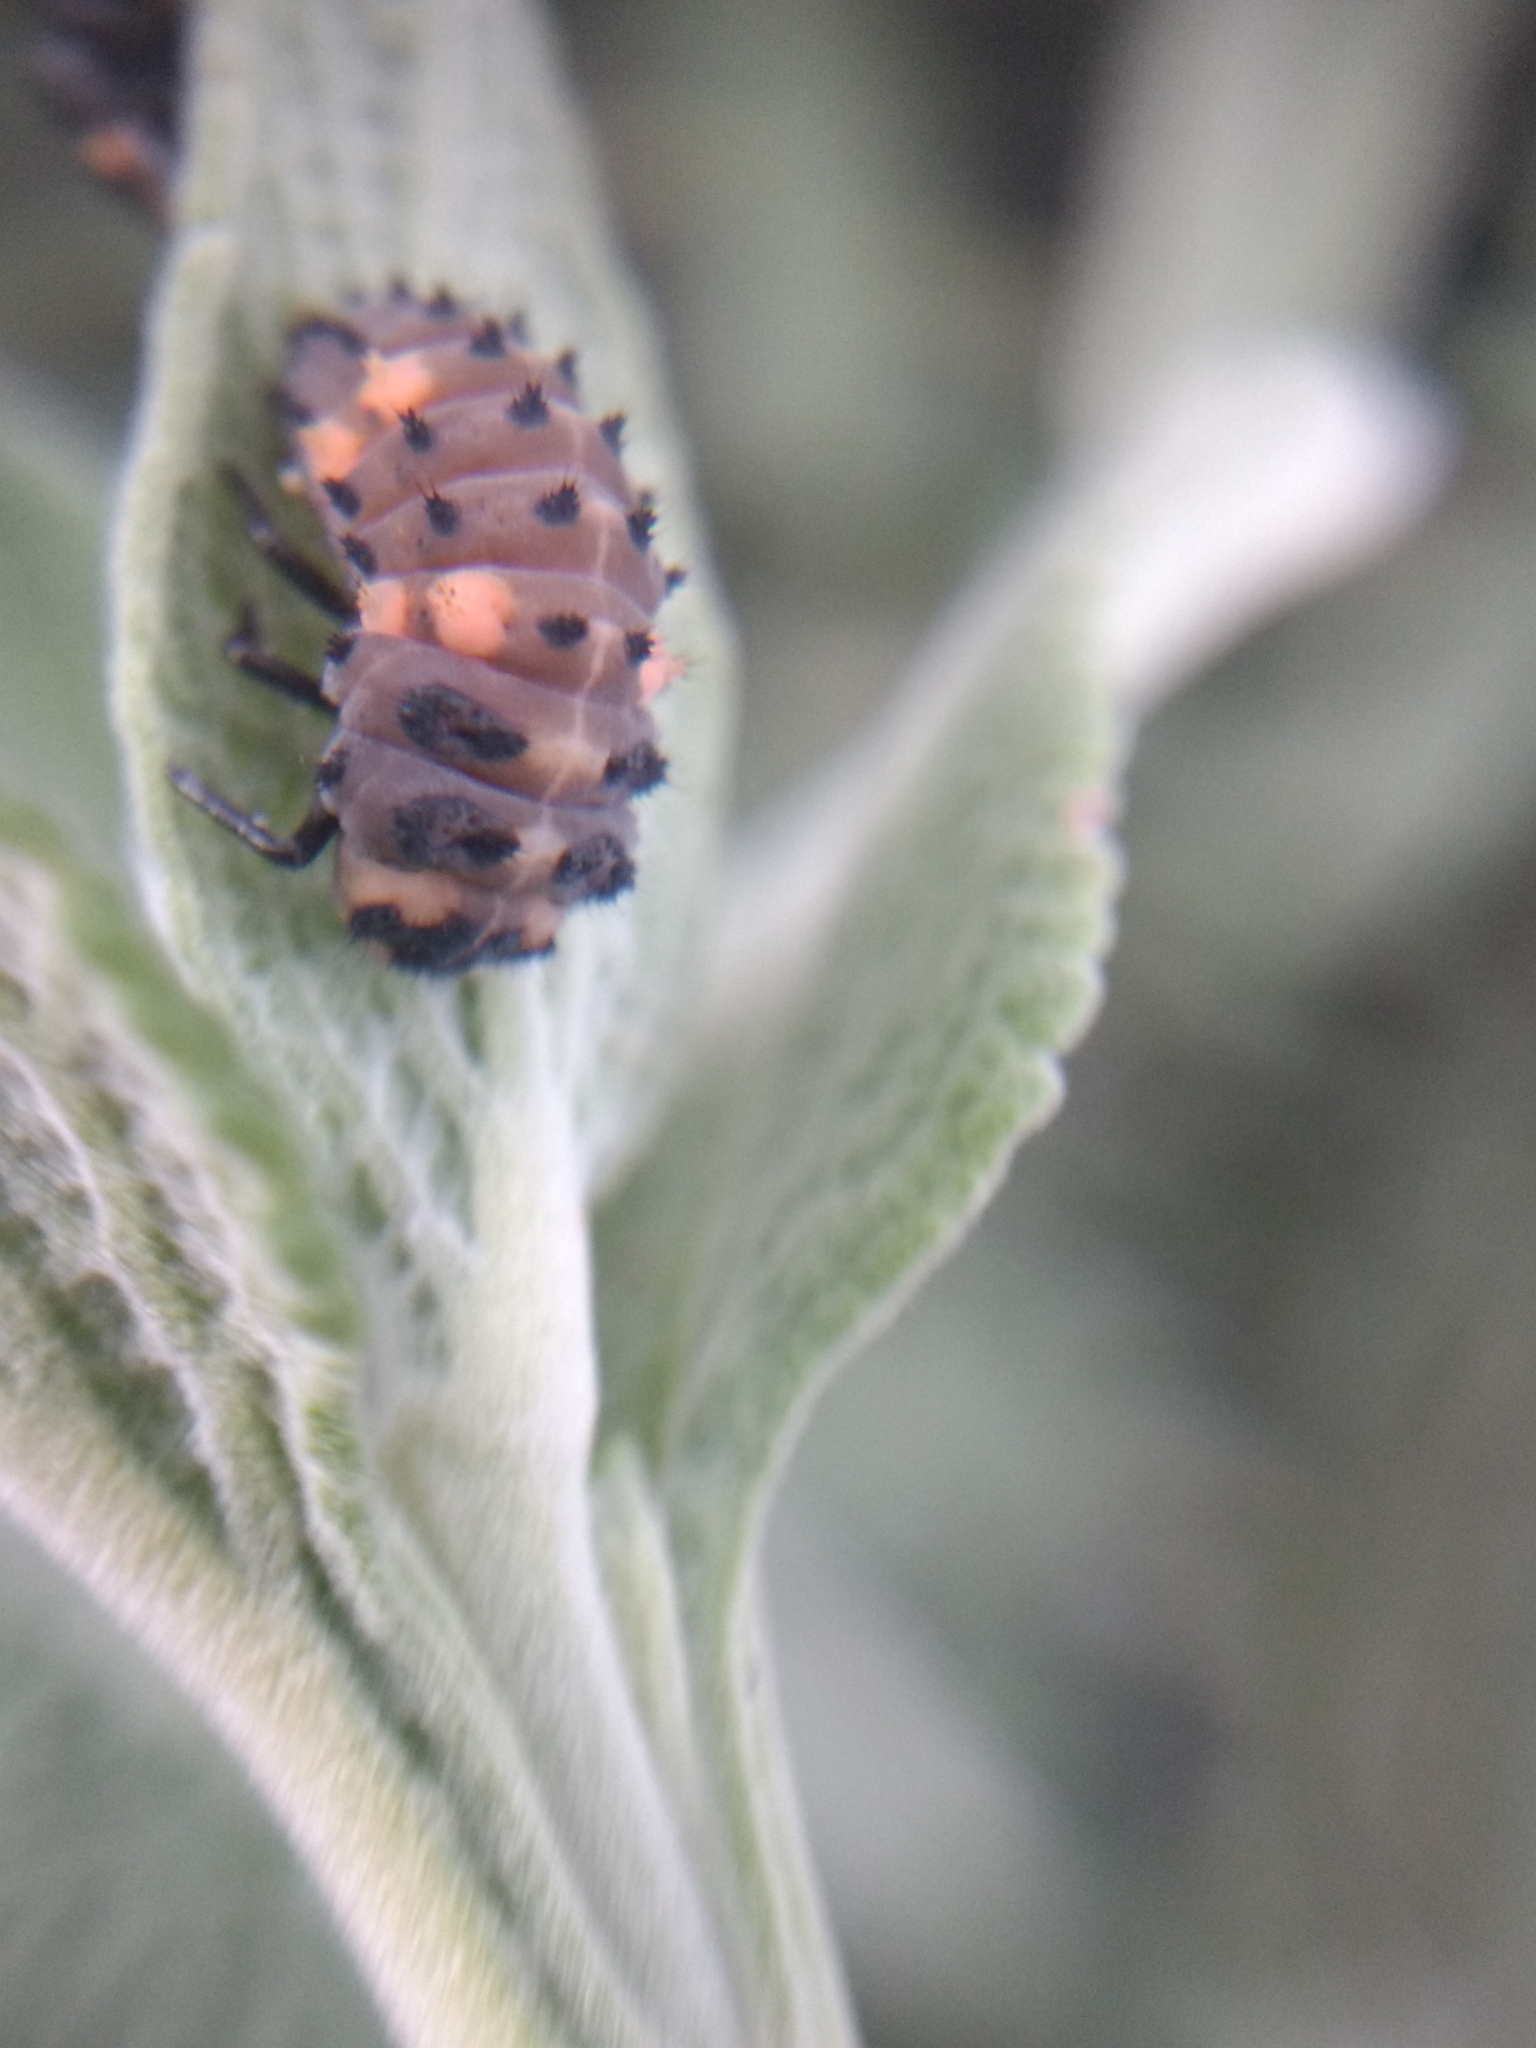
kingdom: Animalia
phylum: Arthropoda
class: Insecta
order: Coleoptera
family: Coccinellidae
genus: Coccinella
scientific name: Coccinella septempunctata
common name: Sevenspotted lady beetle
